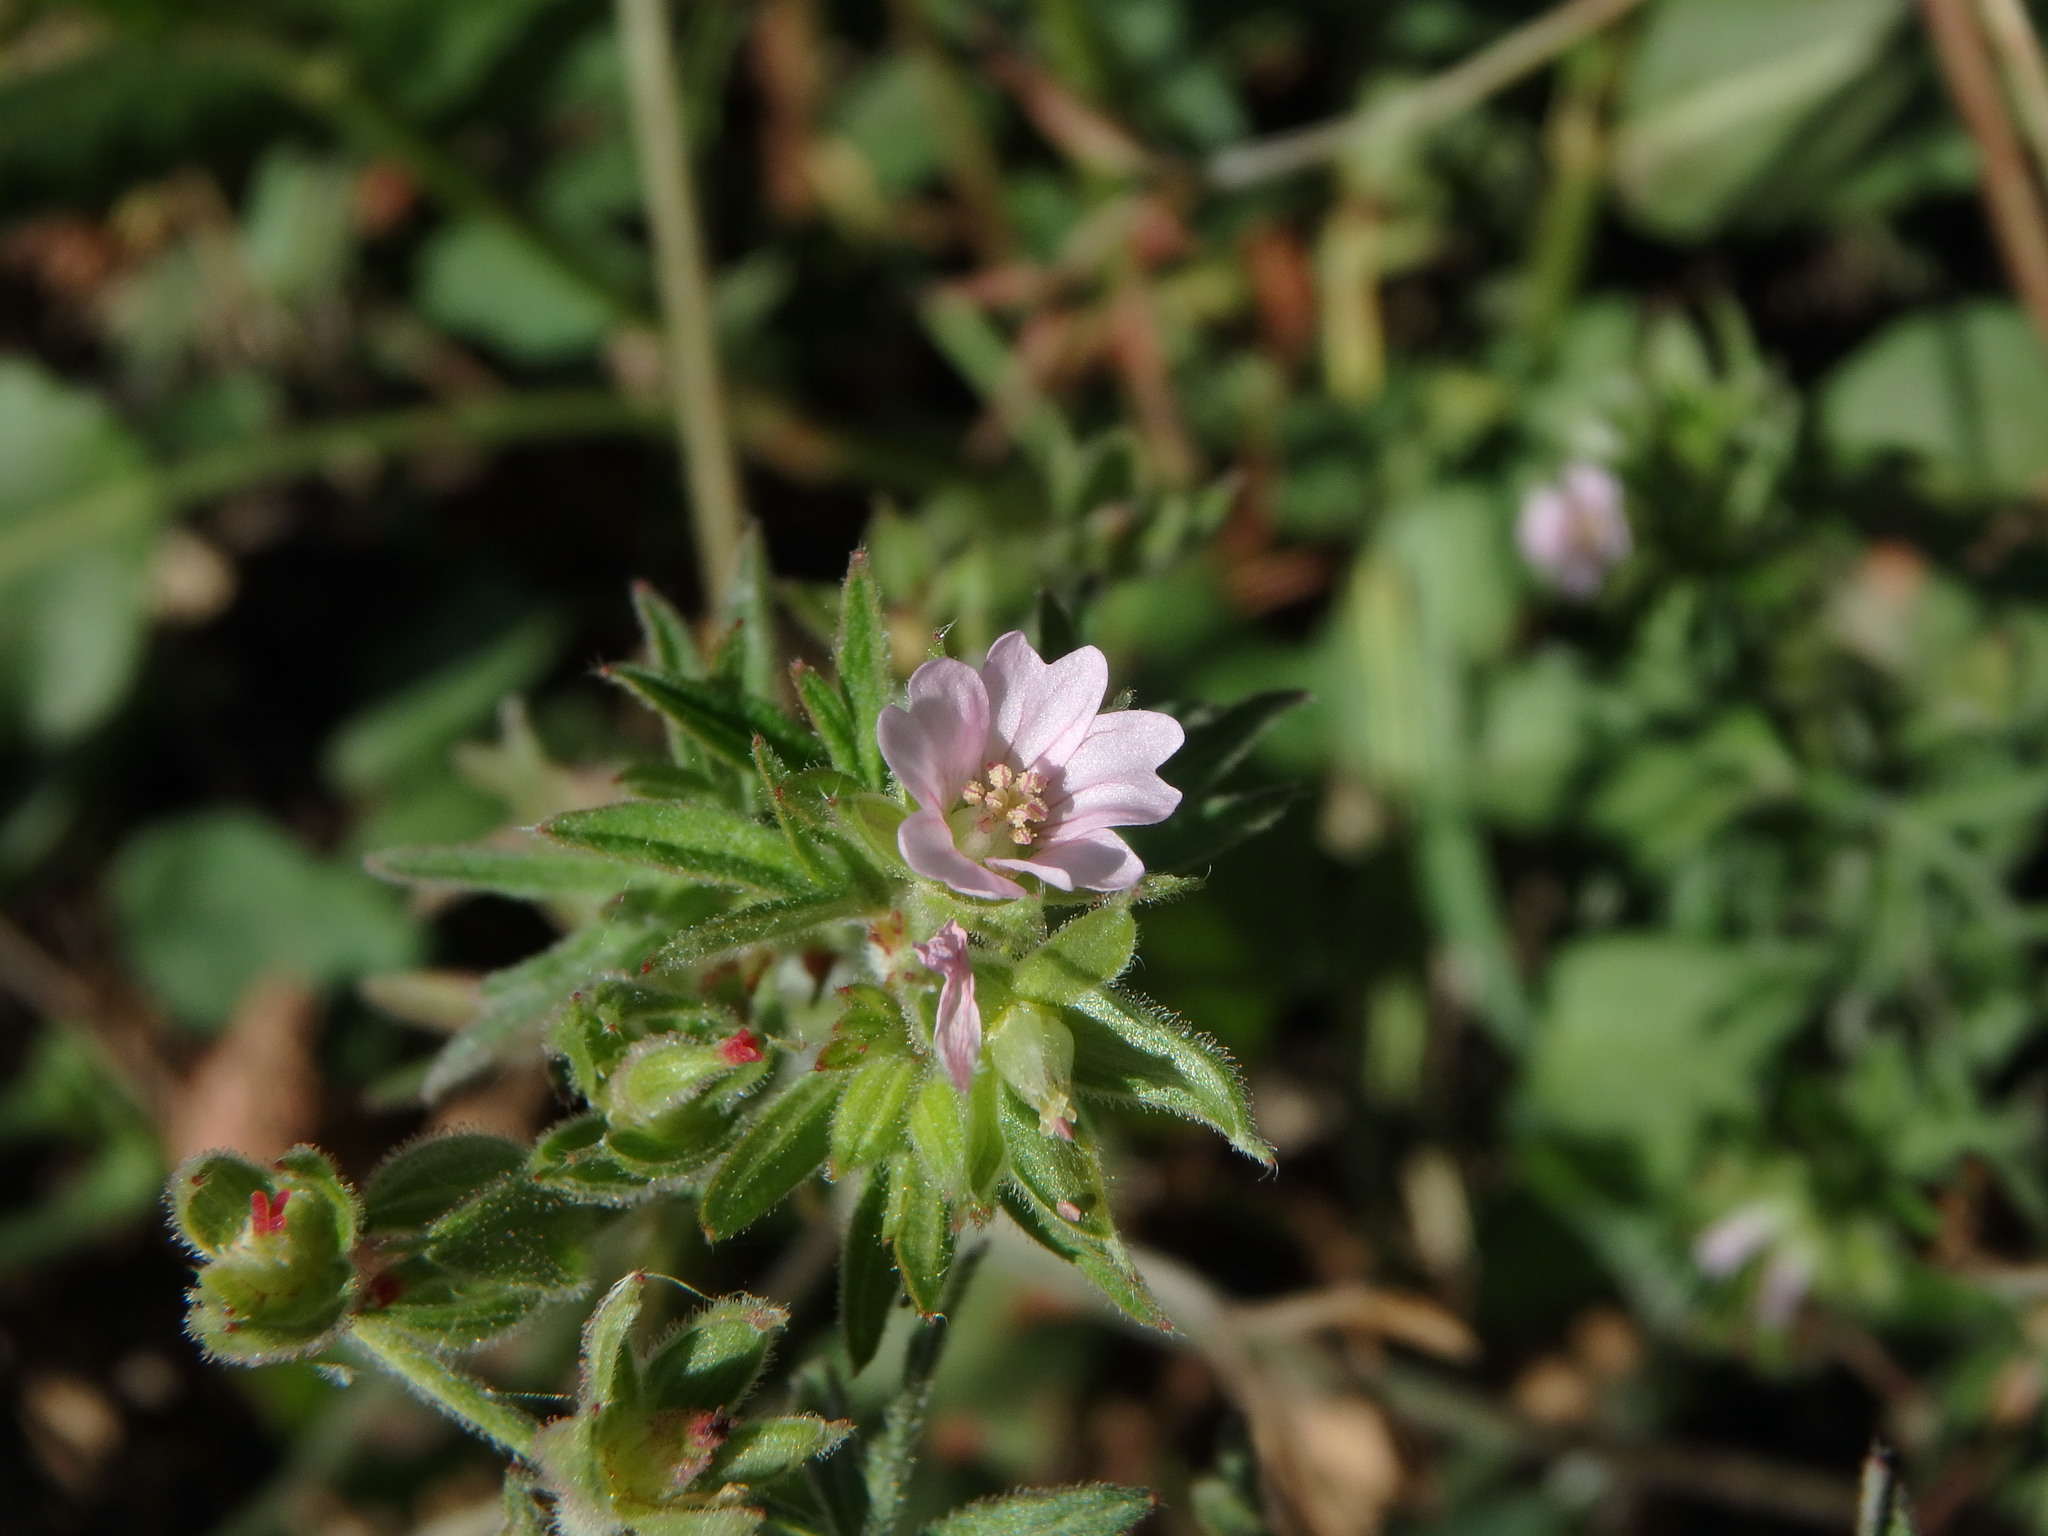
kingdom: Plantae
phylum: Tracheophyta
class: Magnoliopsida
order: Geraniales
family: Geraniaceae
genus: Geranium
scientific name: Geranium dissectum
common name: Cut-leaved crane's-bill
